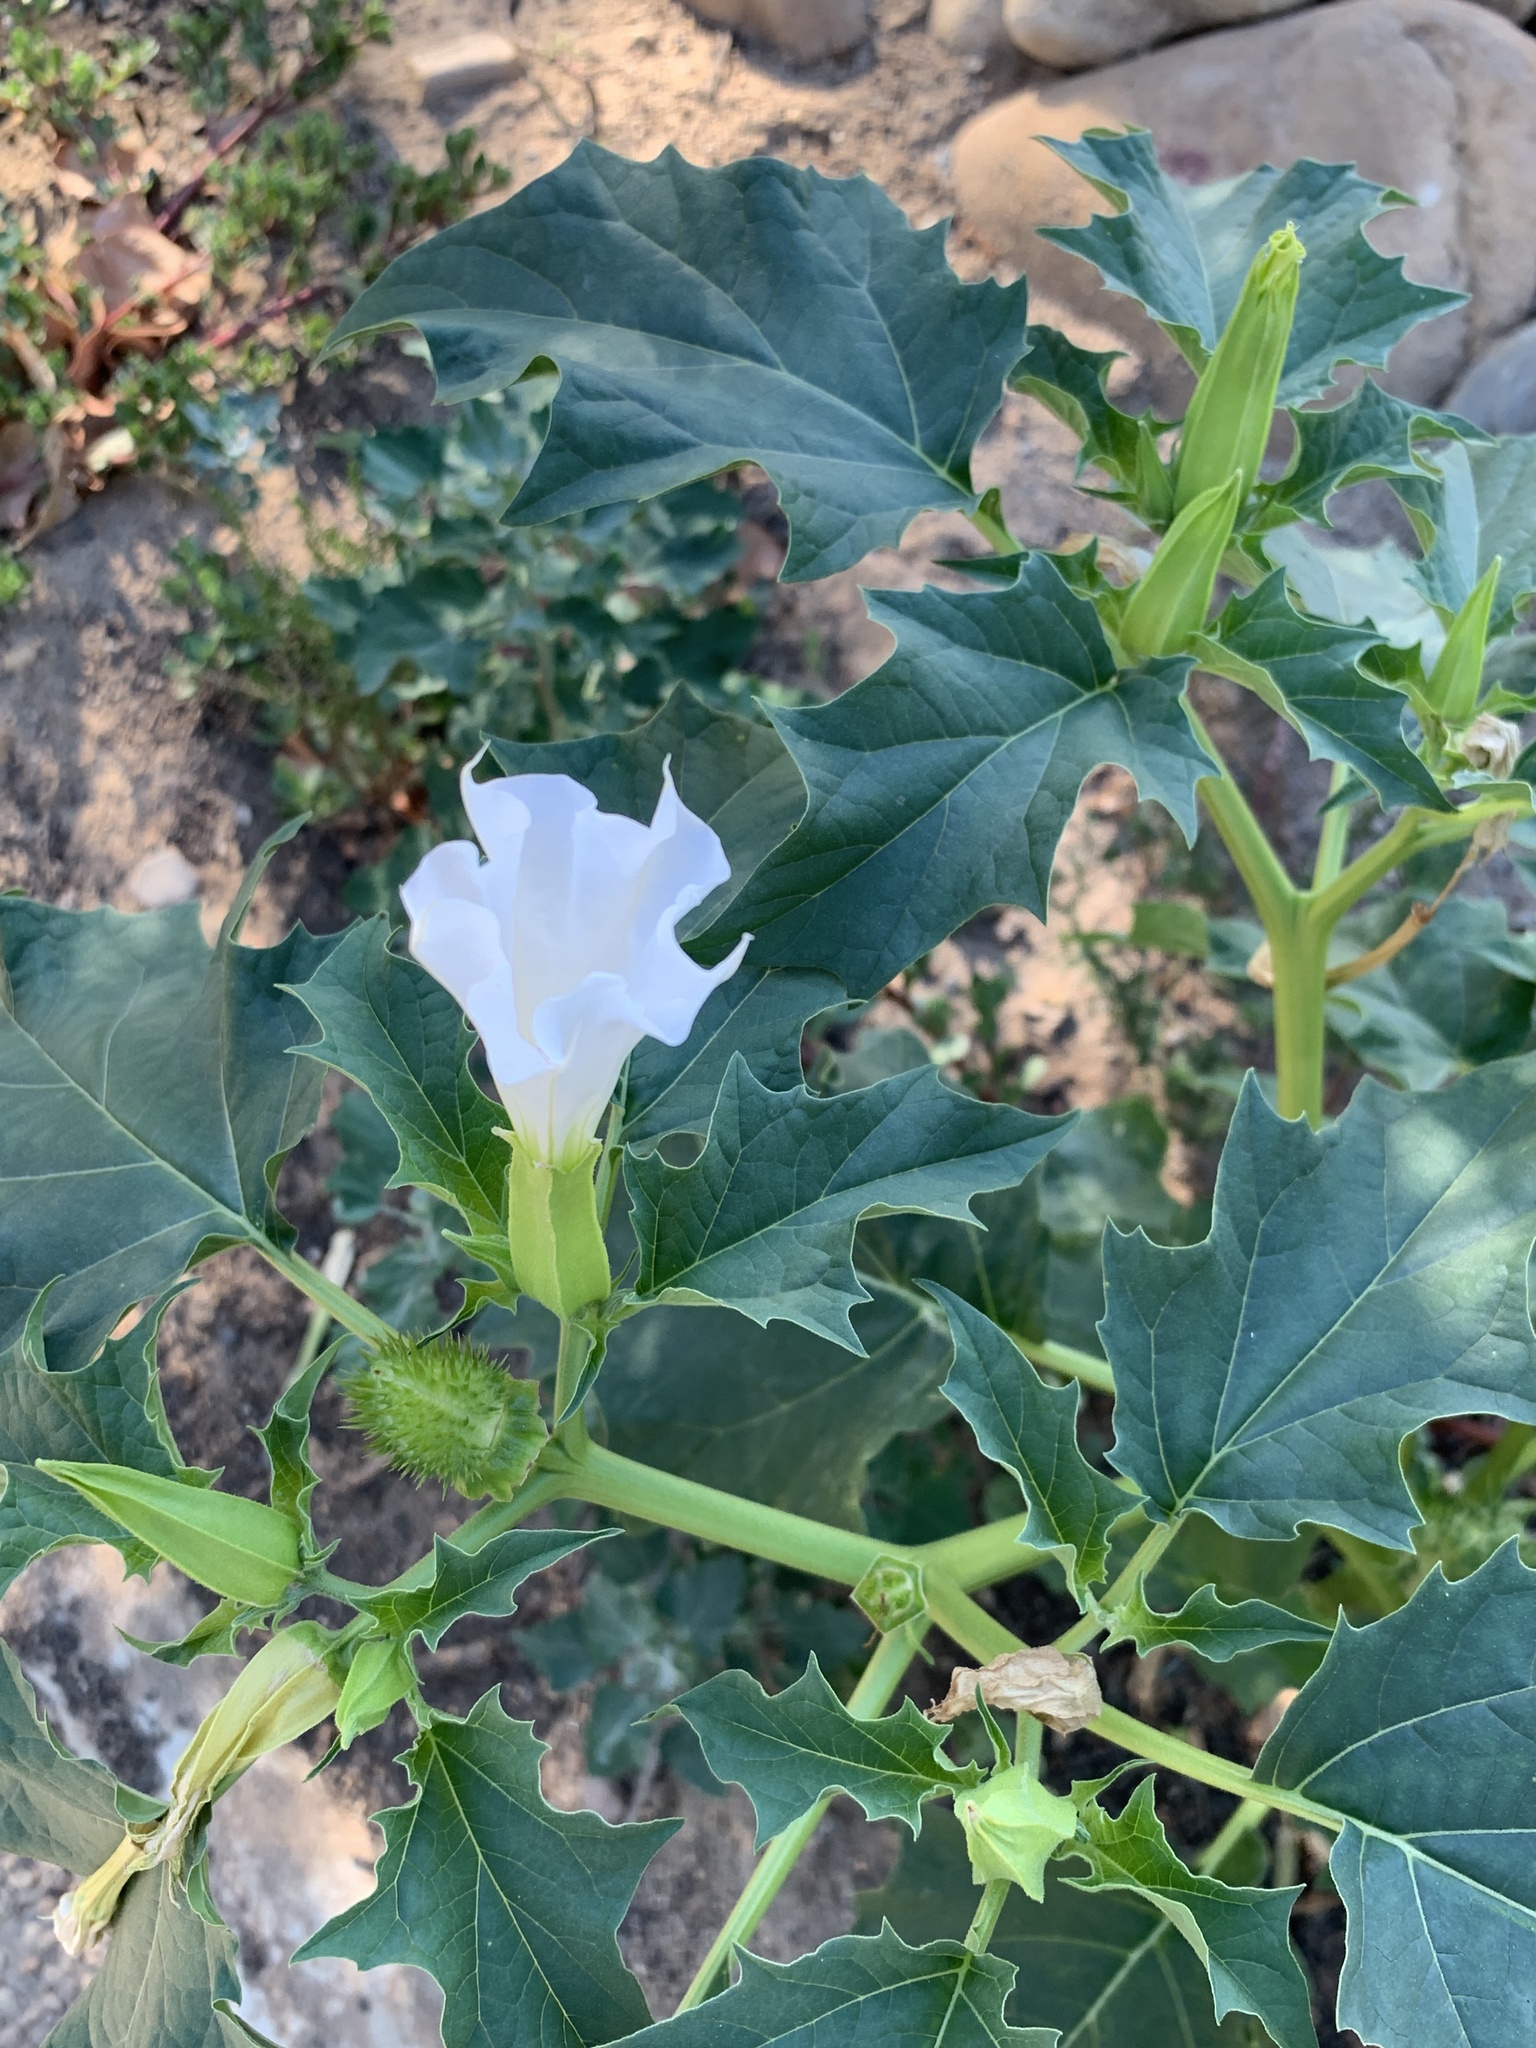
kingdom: Plantae
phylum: Tracheophyta
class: Magnoliopsida
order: Solanales
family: Solanaceae
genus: Datura
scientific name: Datura stramonium
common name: Thorn-apple
